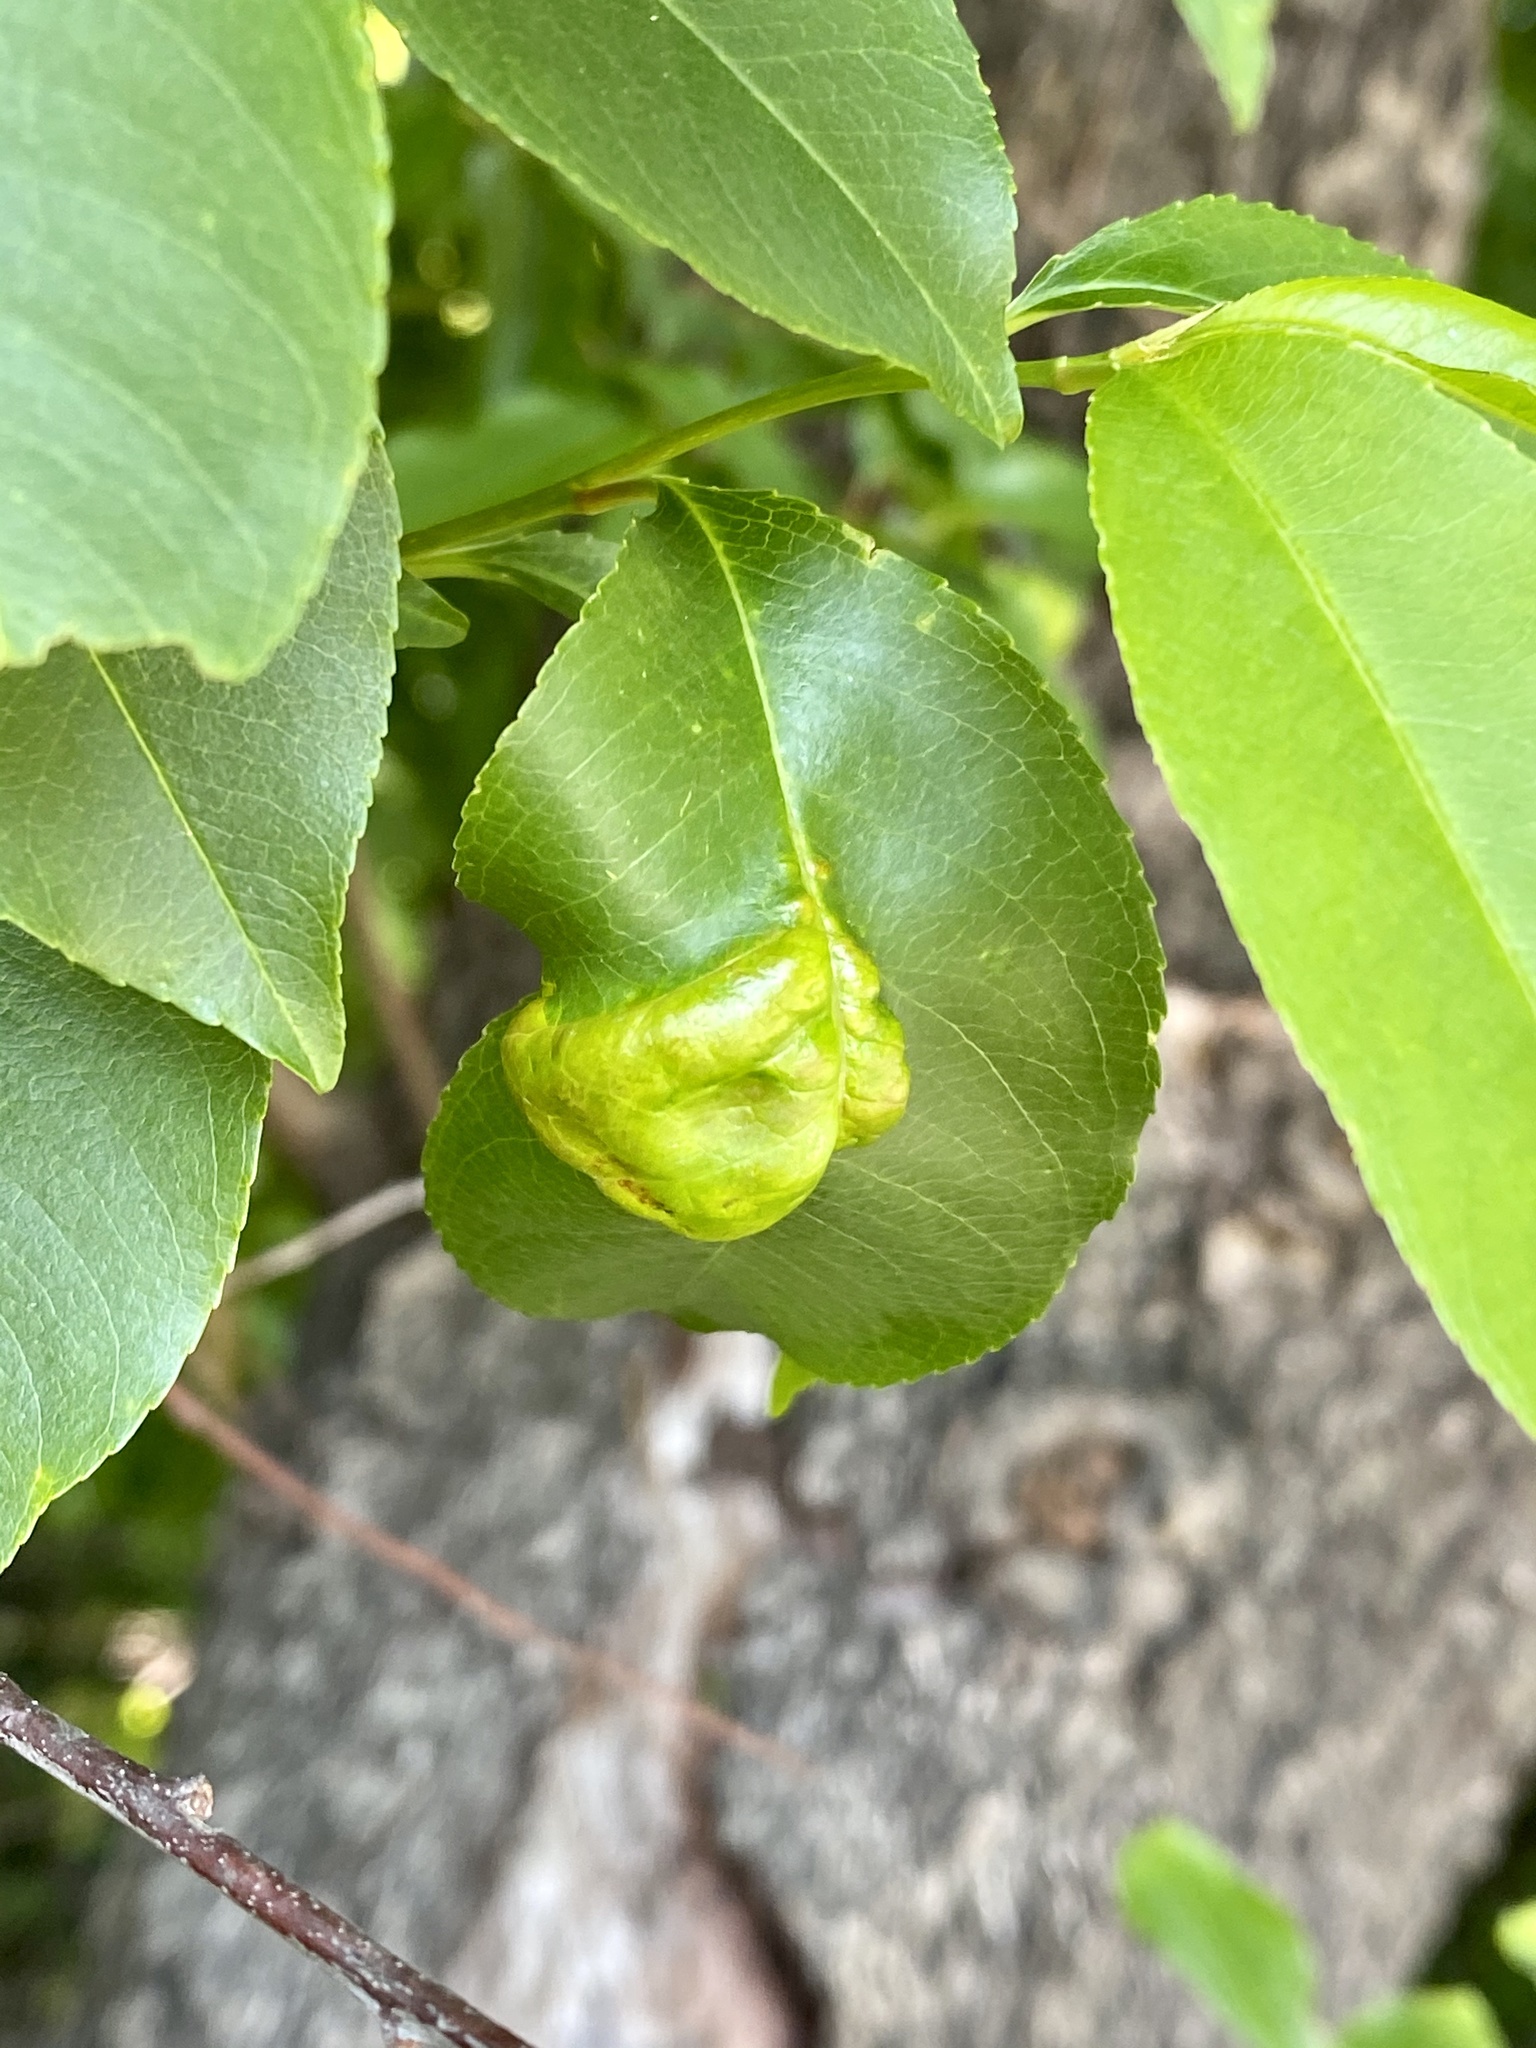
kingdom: Fungi
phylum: Ascomycota
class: Taphrinomycetes
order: Taphrinales
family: Taphrinaceae
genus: Taphrina
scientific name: Taphrina farlowii
